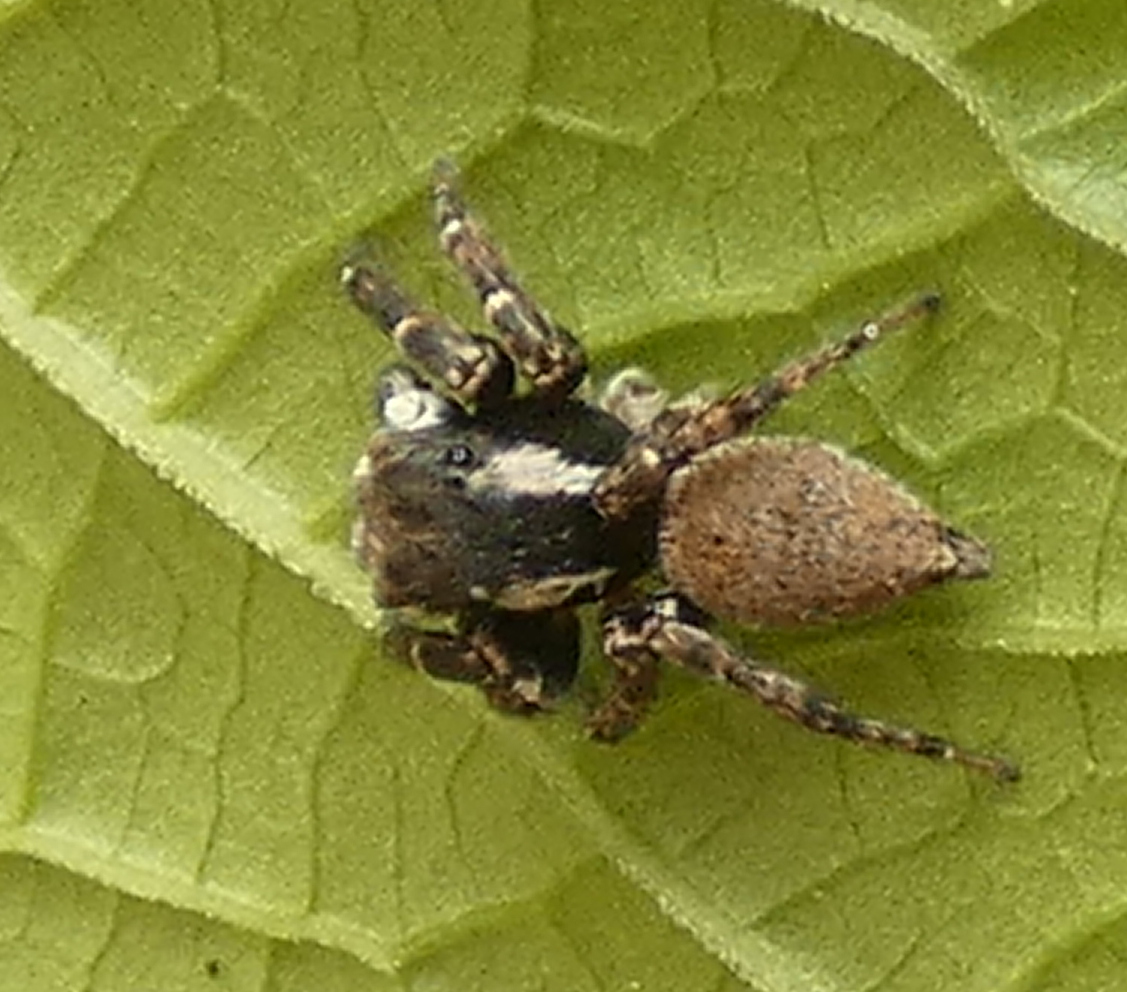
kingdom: Animalia
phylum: Arthropoda
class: Arachnida
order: Araneae
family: Salticidae
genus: Sumampattus
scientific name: Sumampattus quinqueradiatus
